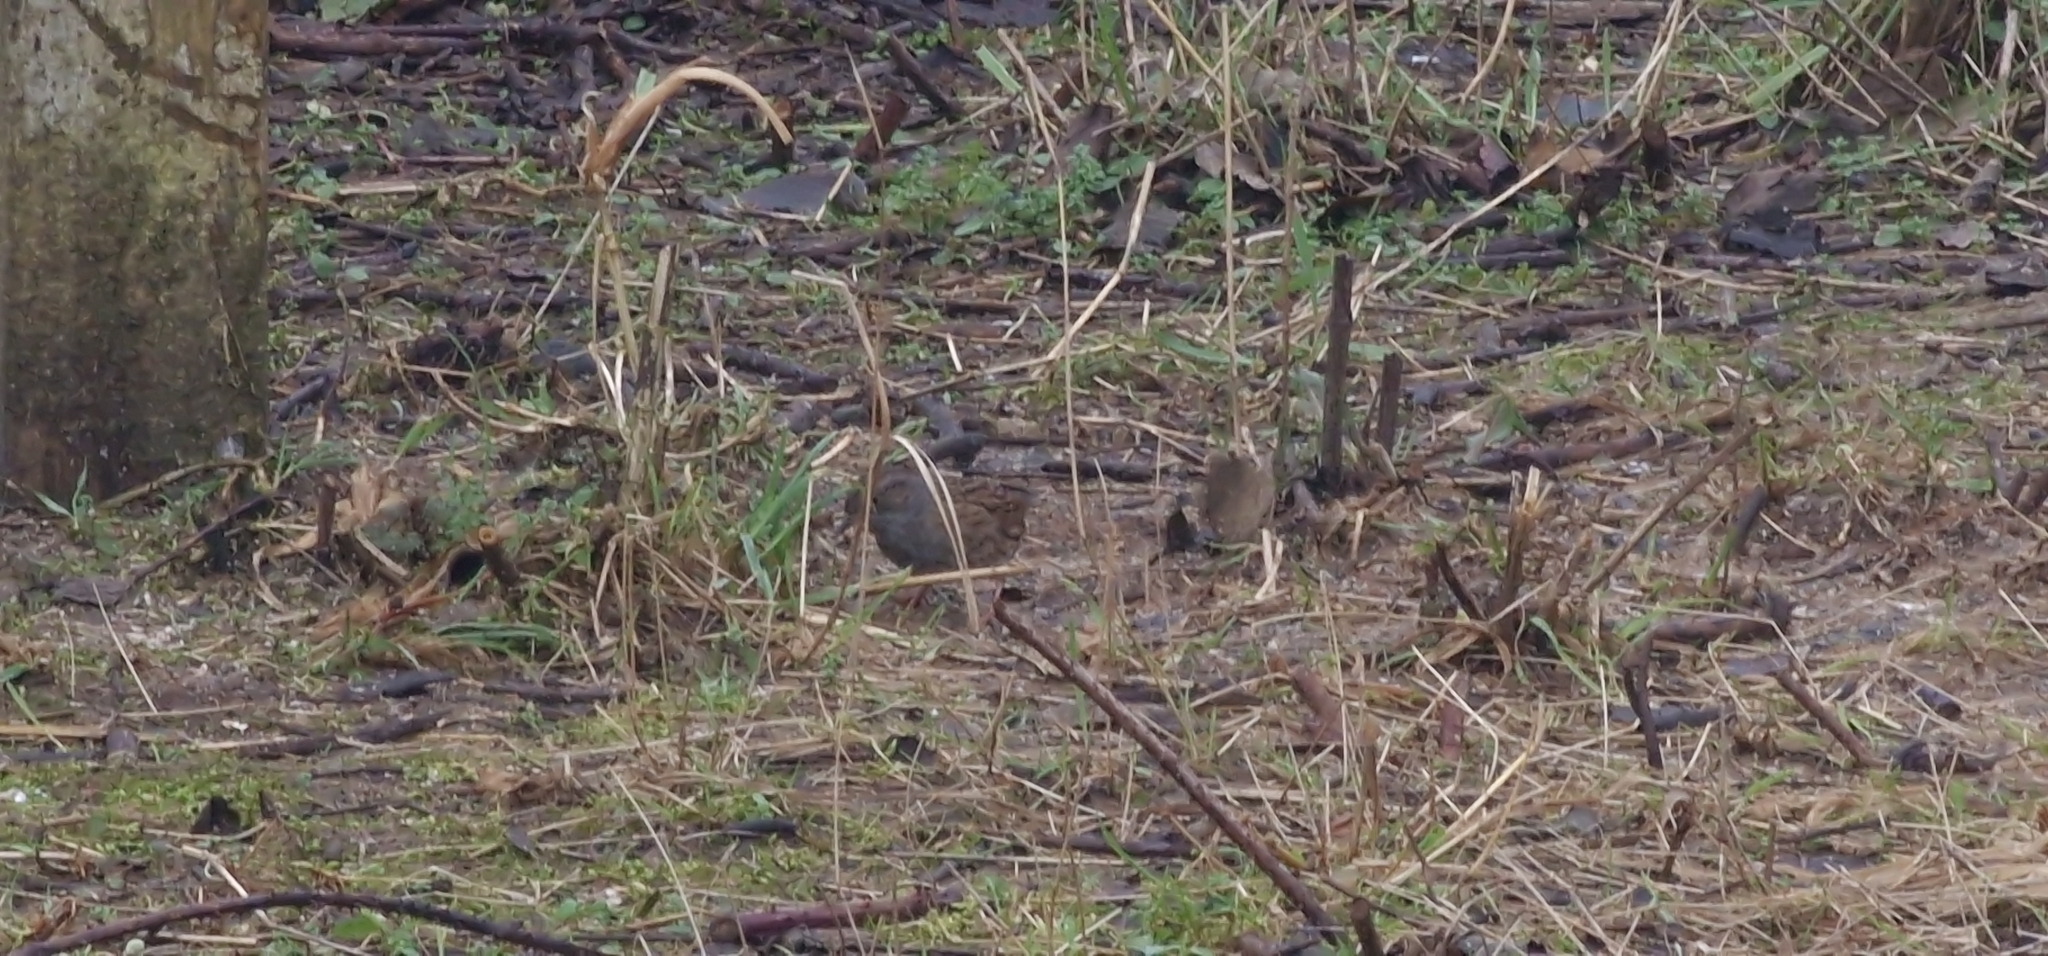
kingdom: Animalia
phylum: Chordata
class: Aves
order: Passeriformes
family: Prunellidae
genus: Prunella
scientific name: Prunella modularis
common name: Dunnock
